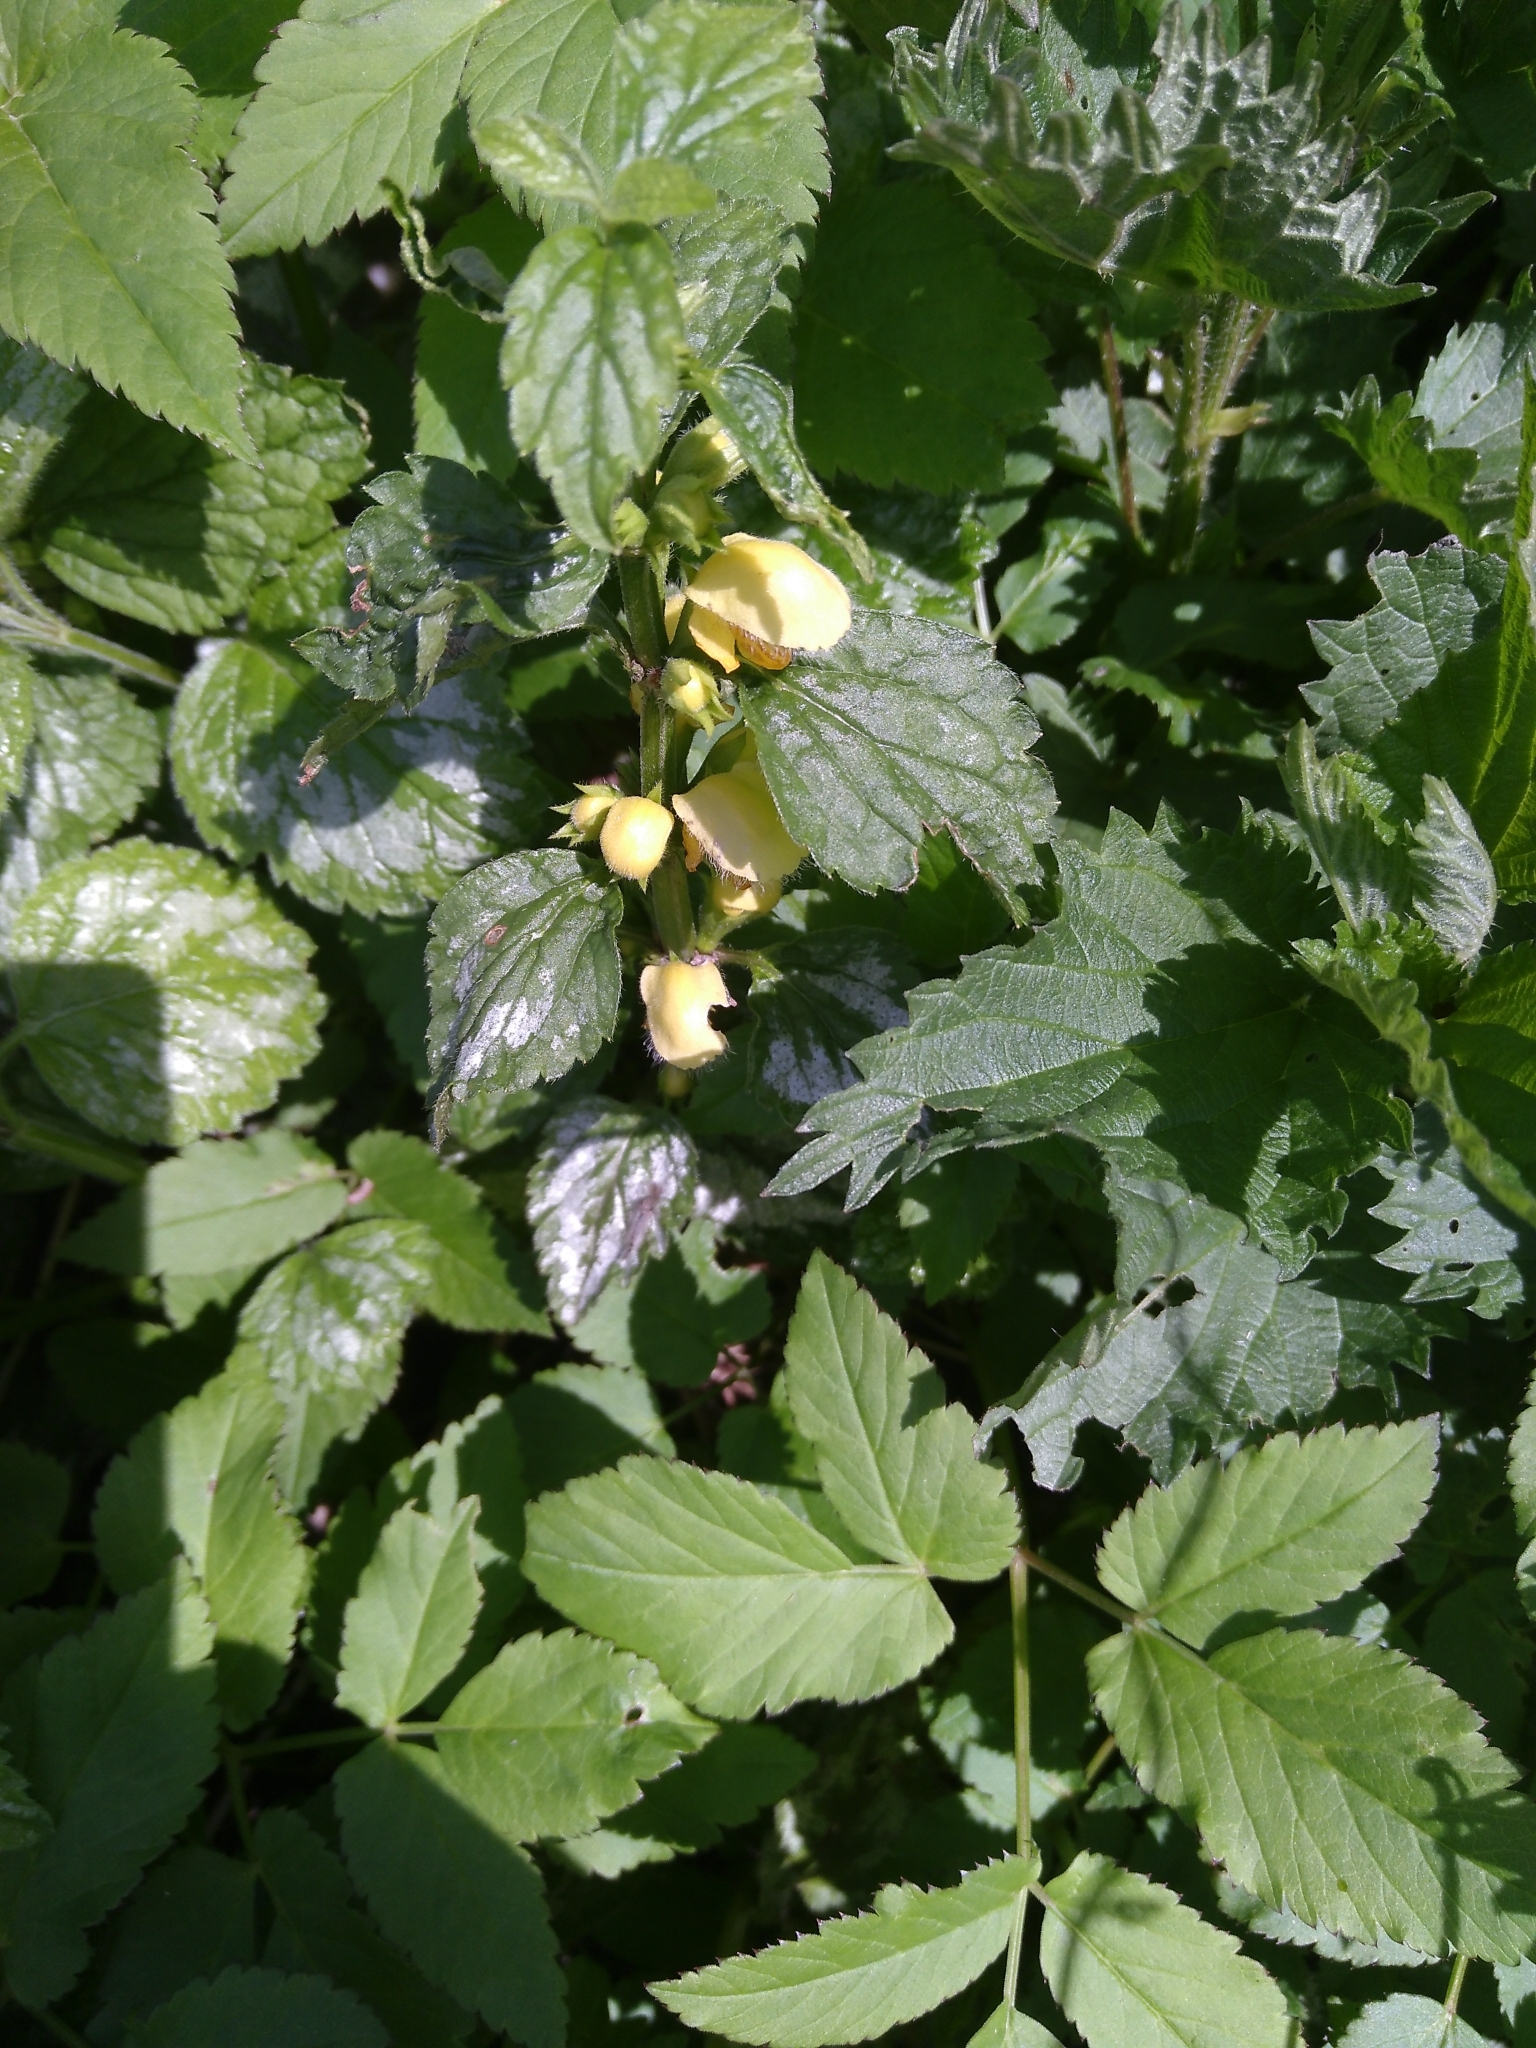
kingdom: Plantae
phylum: Tracheophyta
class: Magnoliopsida
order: Lamiales
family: Lamiaceae
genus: Lamium
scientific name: Lamium galeobdolon
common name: Yellow archangel
